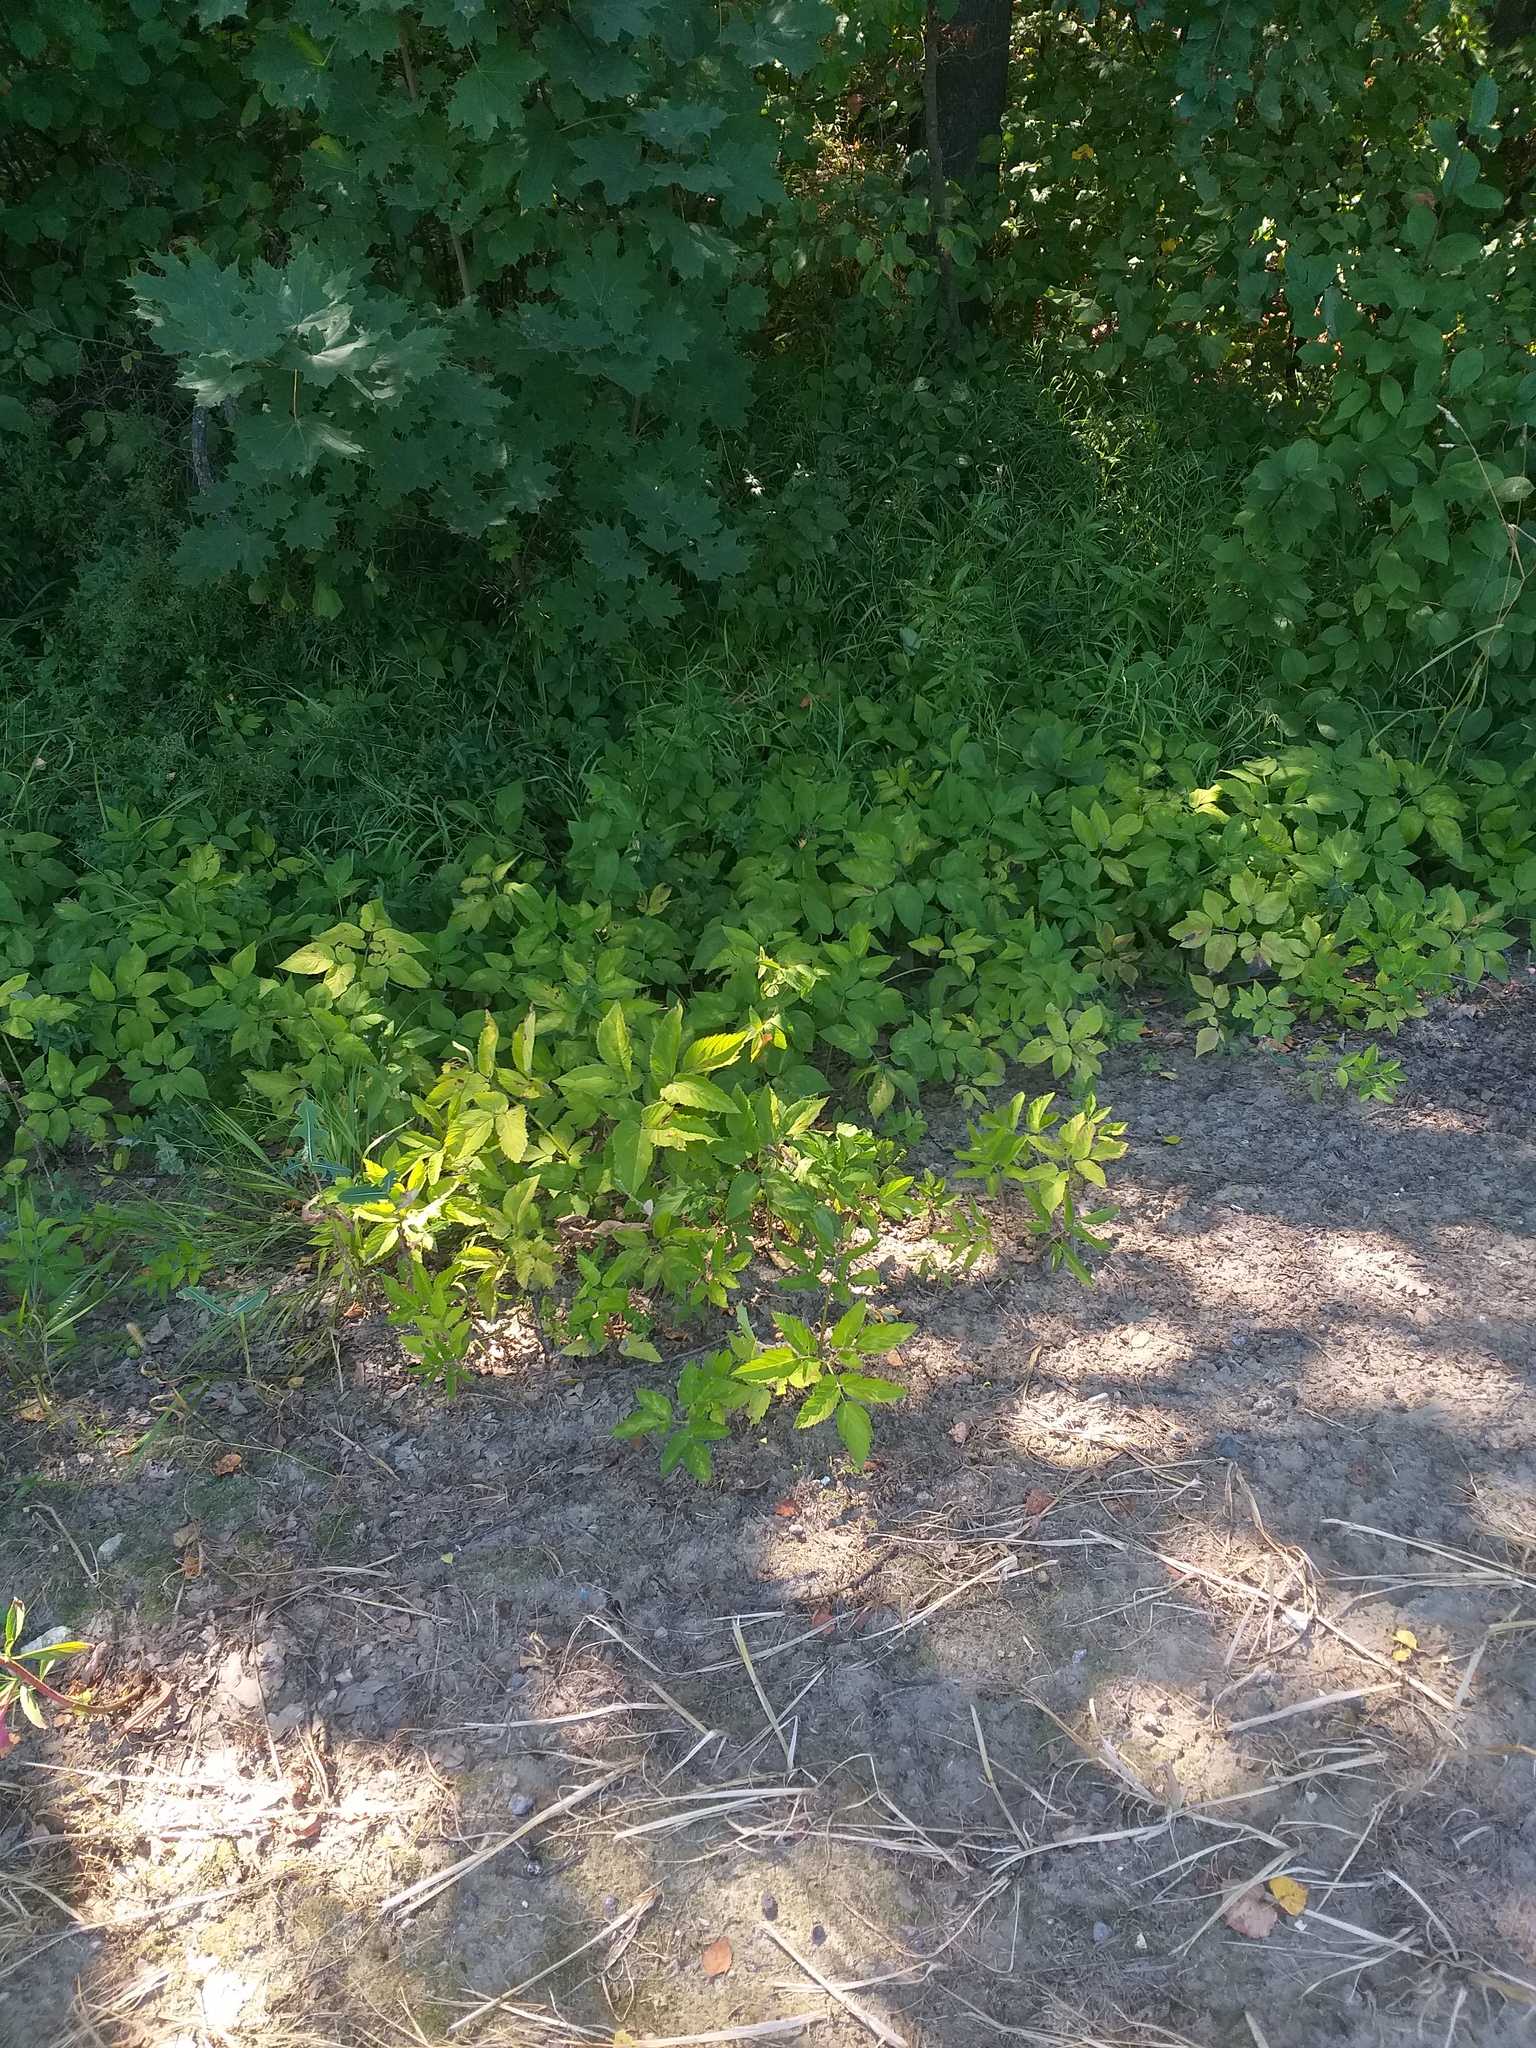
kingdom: Plantae
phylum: Tracheophyta
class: Magnoliopsida
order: Apiales
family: Apiaceae
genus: Aegopodium
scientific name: Aegopodium podagraria
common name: Ground-elder
